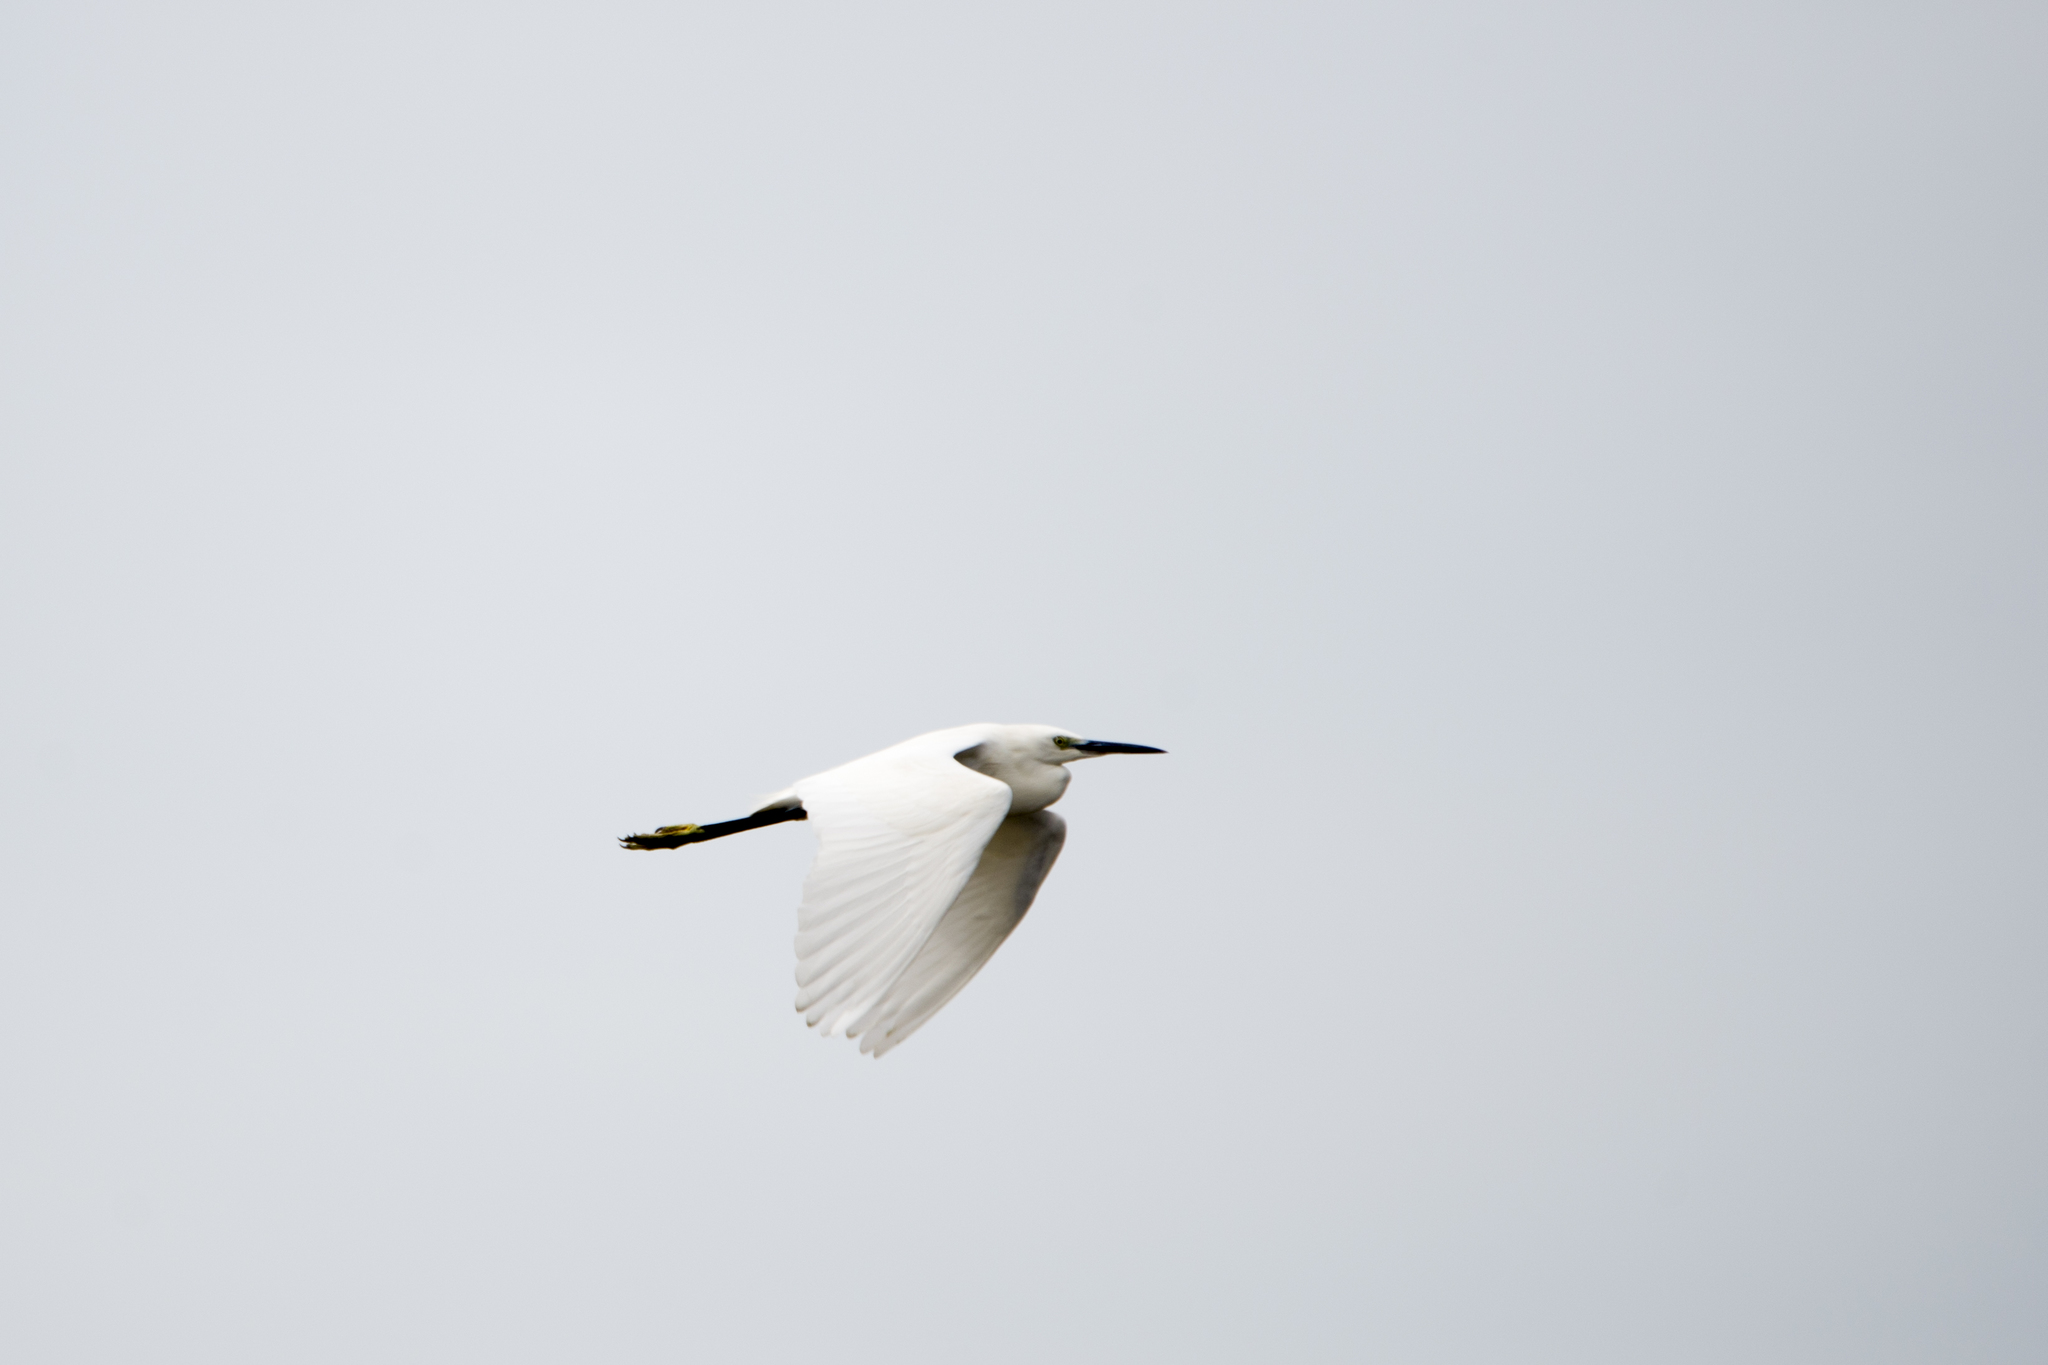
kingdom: Animalia
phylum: Chordata
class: Aves
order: Pelecaniformes
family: Ardeidae
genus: Egretta
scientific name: Egretta garzetta
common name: Little egret
